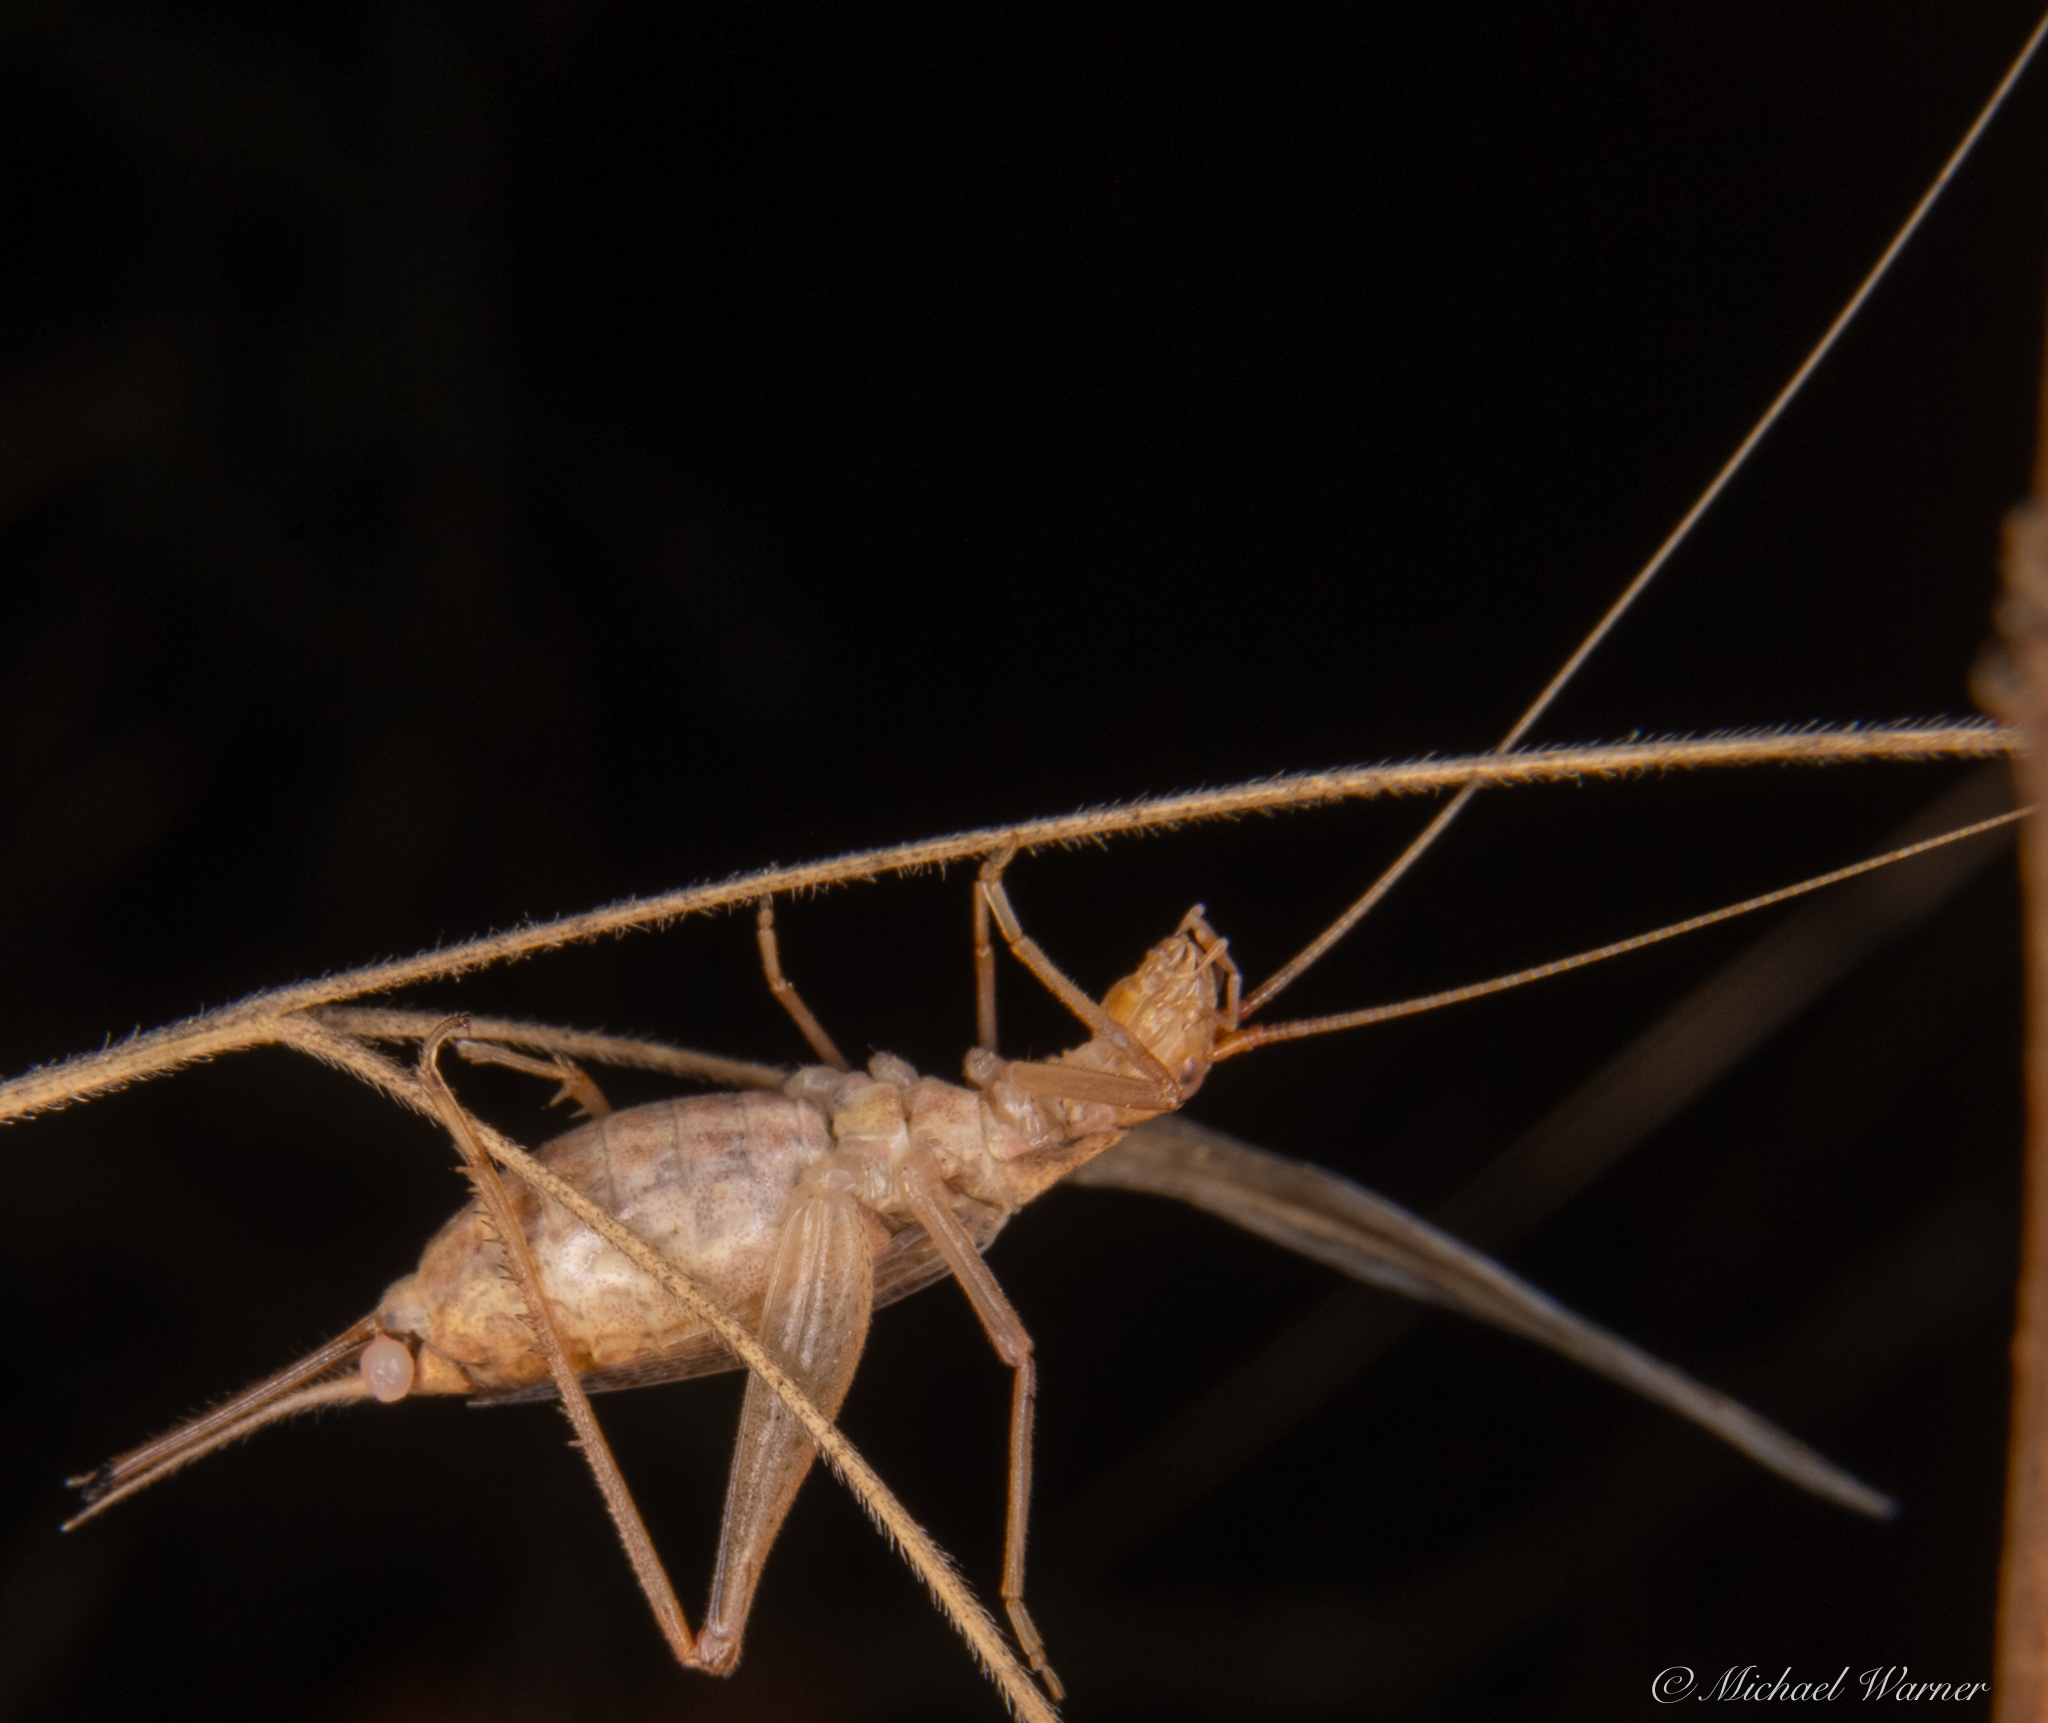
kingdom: Animalia
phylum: Arthropoda
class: Insecta
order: Orthoptera
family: Gryllidae
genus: Oecanthus
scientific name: Oecanthus californicus
